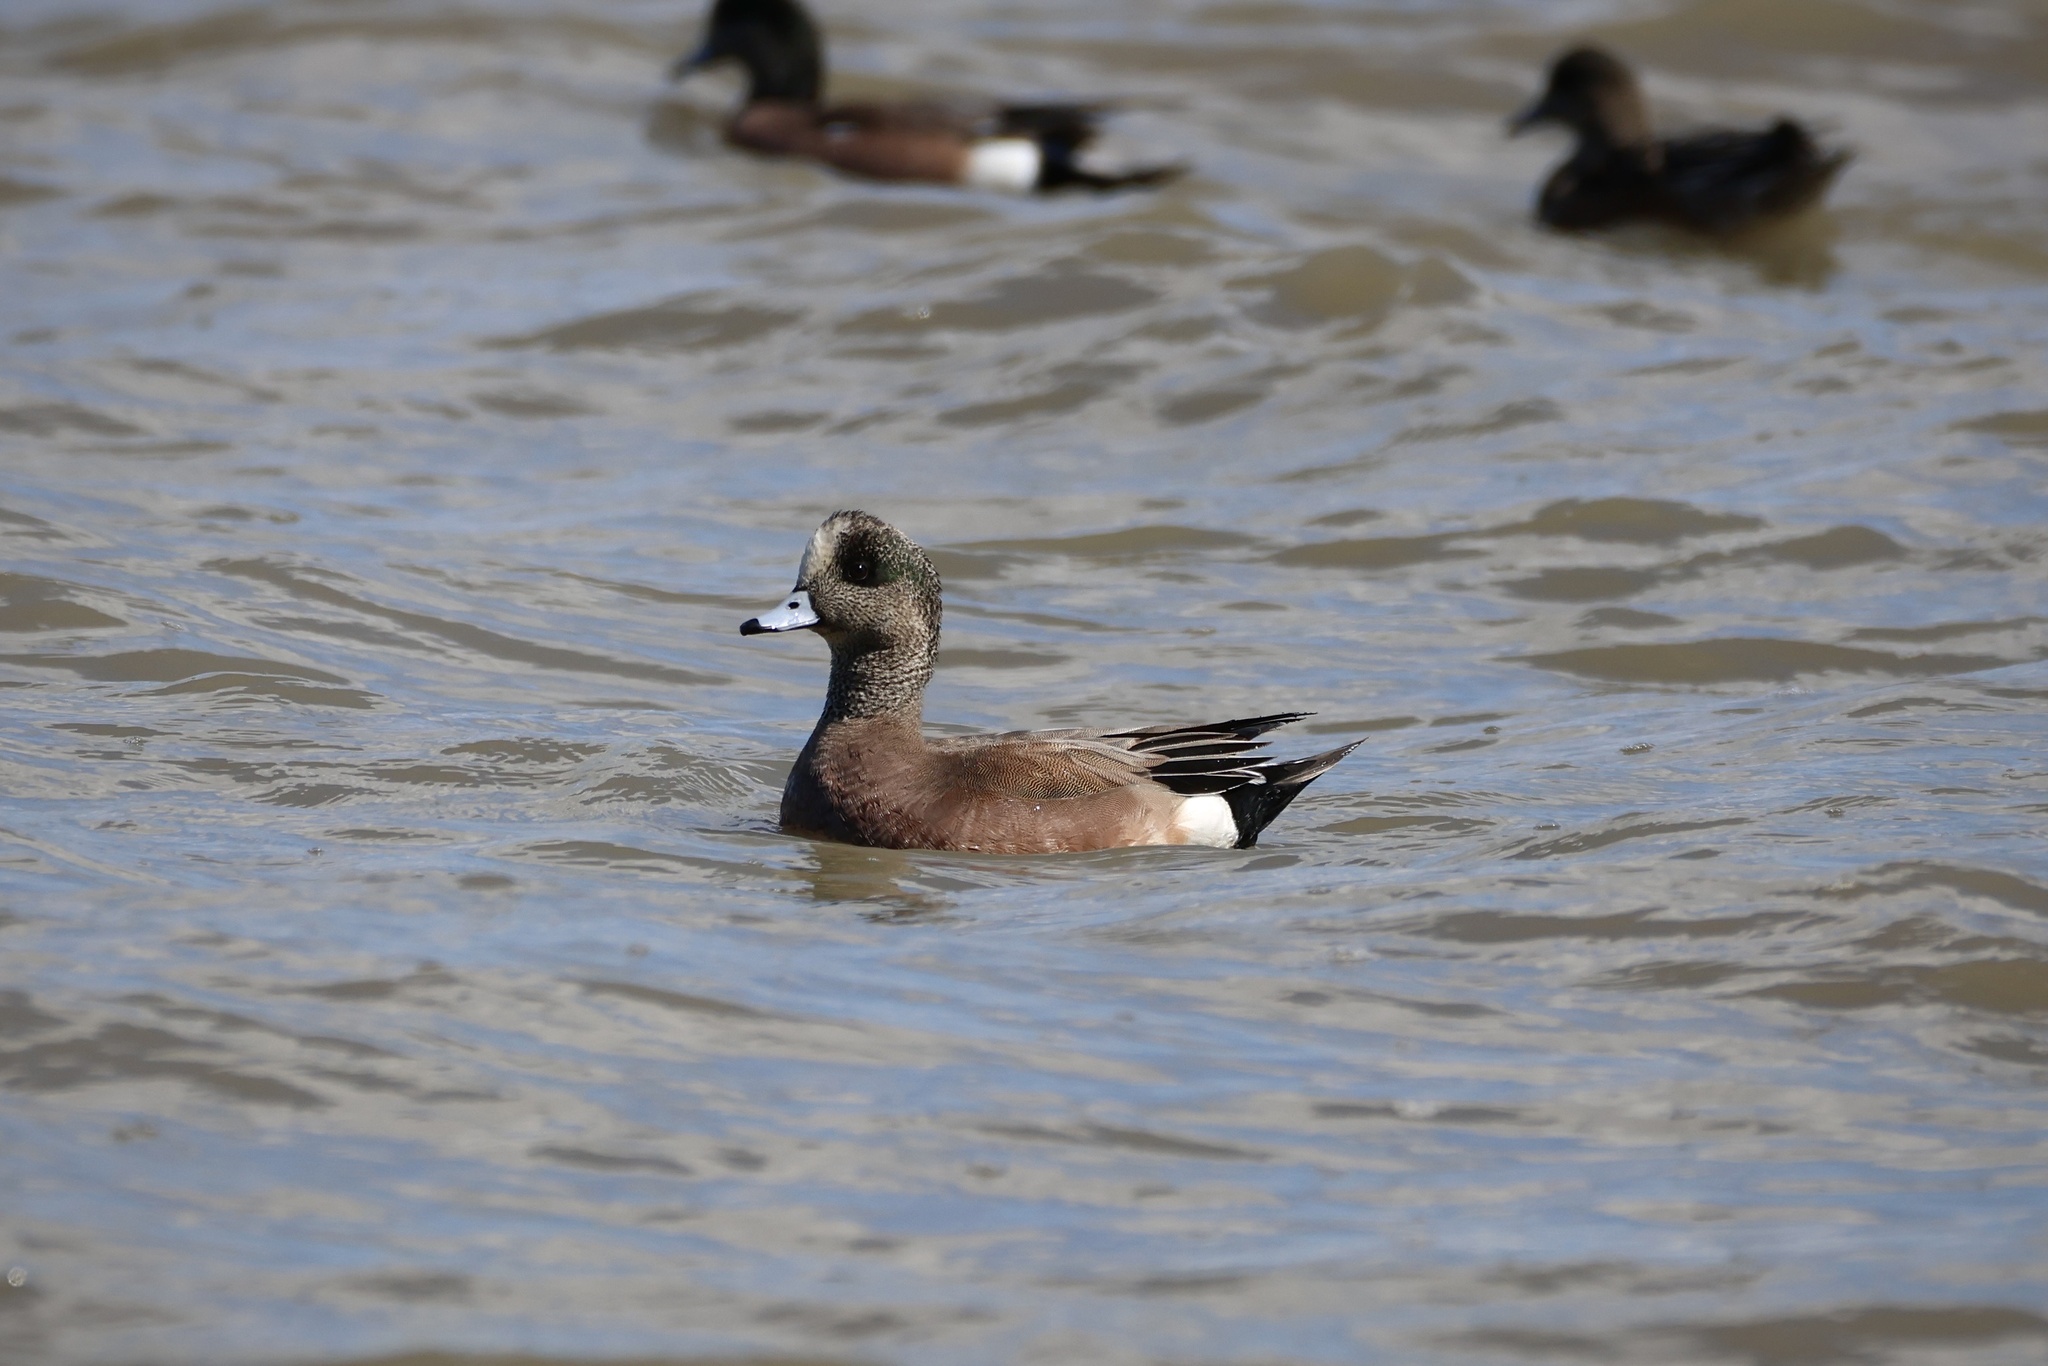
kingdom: Animalia
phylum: Chordata
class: Aves
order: Anseriformes
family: Anatidae
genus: Mareca
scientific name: Mareca americana
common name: American wigeon
